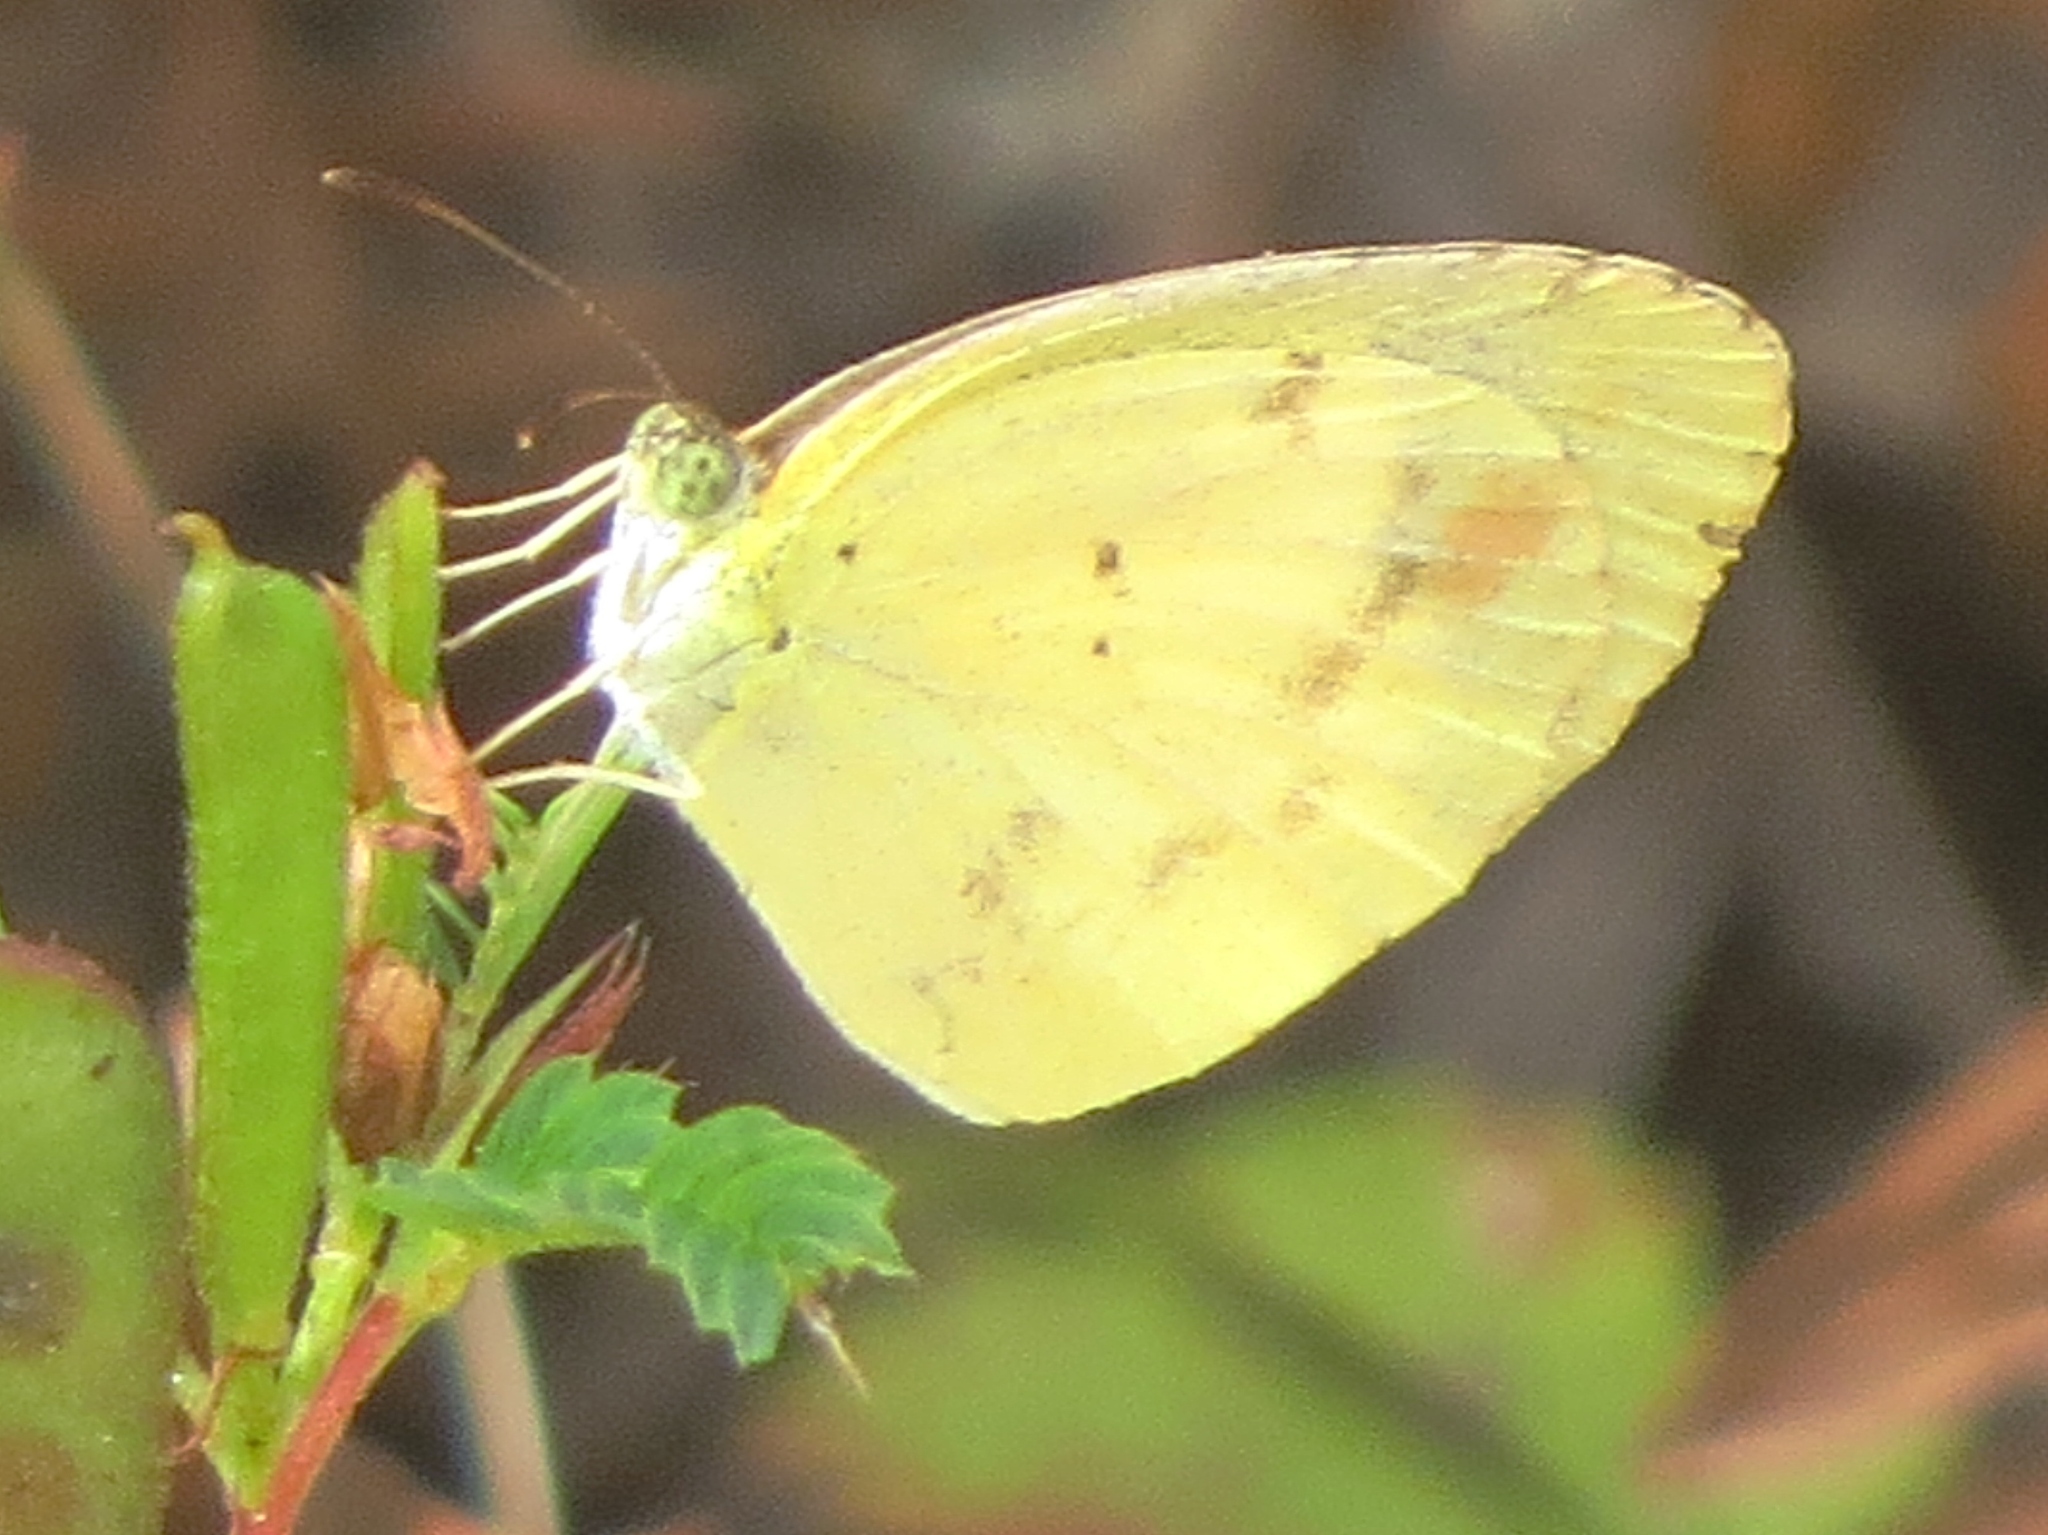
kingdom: Animalia
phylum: Arthropoda
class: Insecta
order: Lepidoptera
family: Pieridae
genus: Pyrisitia
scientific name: Pyrisitia lisa
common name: Little yellow
